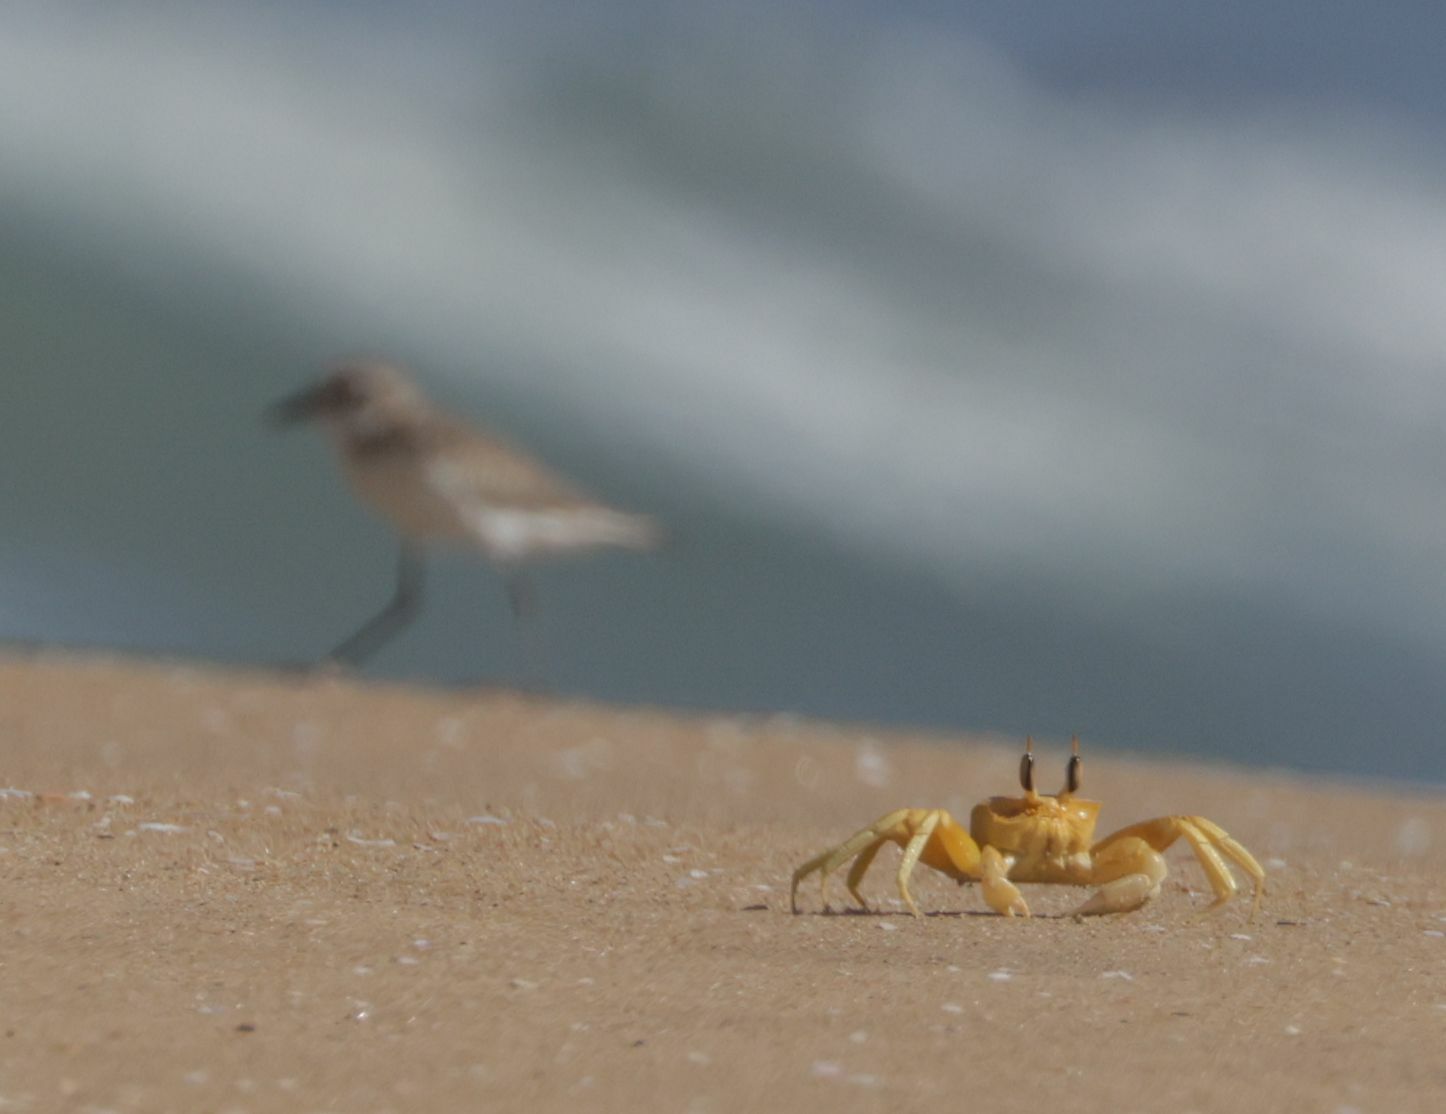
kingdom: Animalia
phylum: Arthropoda
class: Malacostraca
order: Decapoda
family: Ocypodidae
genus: Ocypode
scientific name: Ocypode brevicornis
